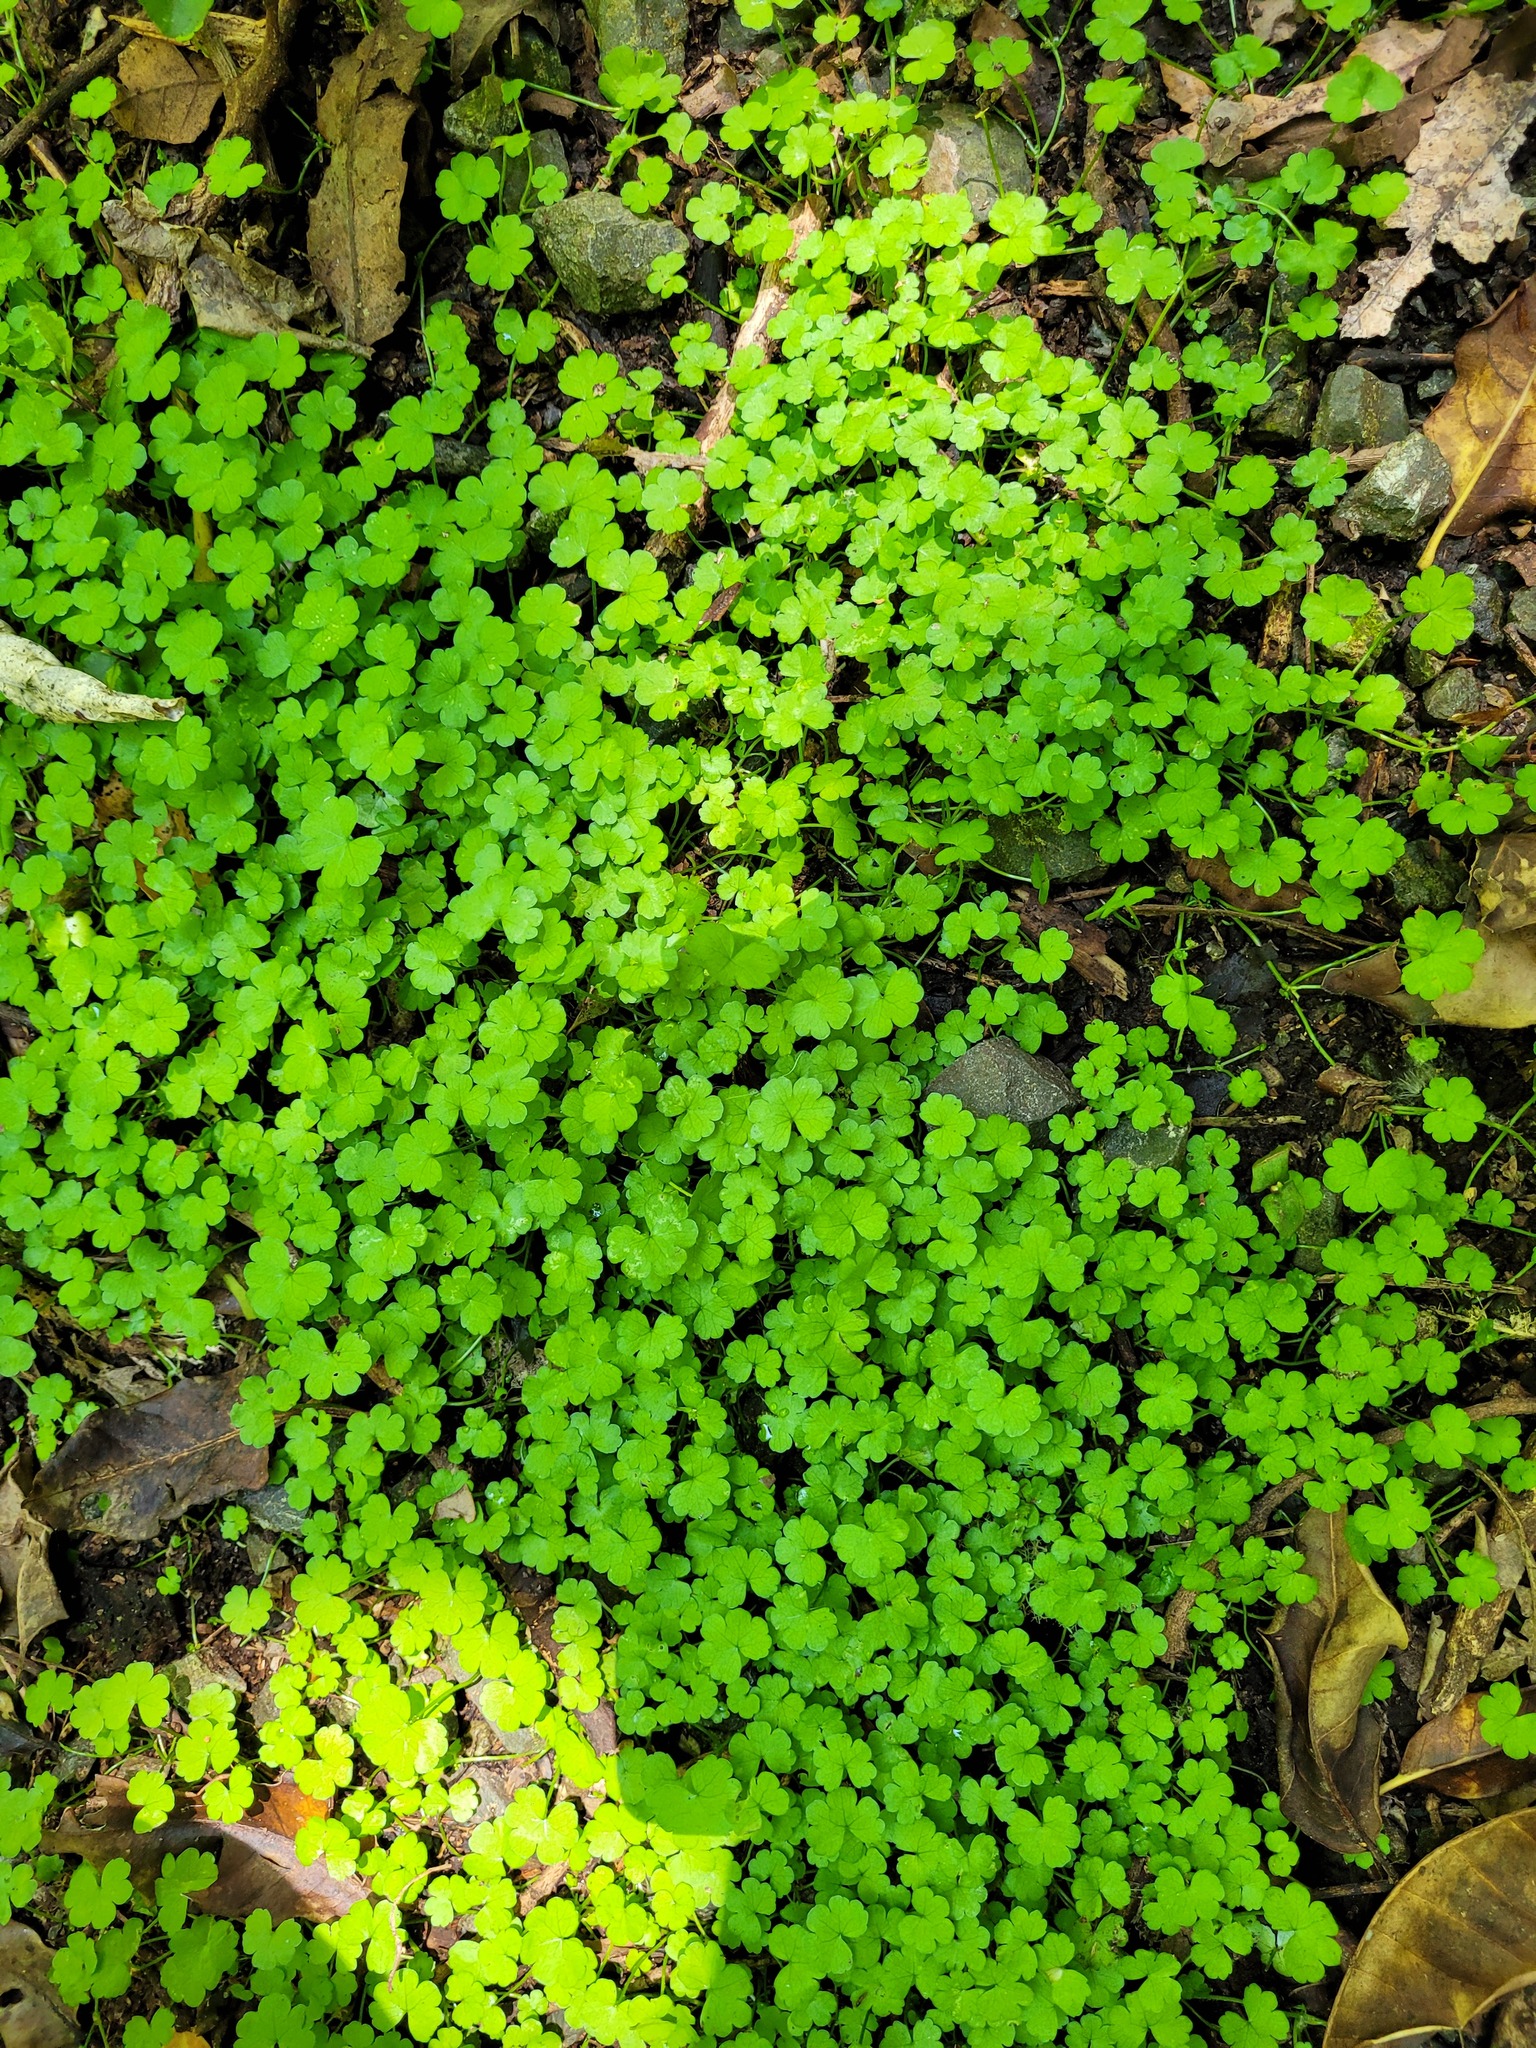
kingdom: Plantae
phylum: Tracheophyta
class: Magnoliopsida
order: Apiales
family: Araliaceae
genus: Hydrocotyle
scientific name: Hydrocotyle heteromeria
